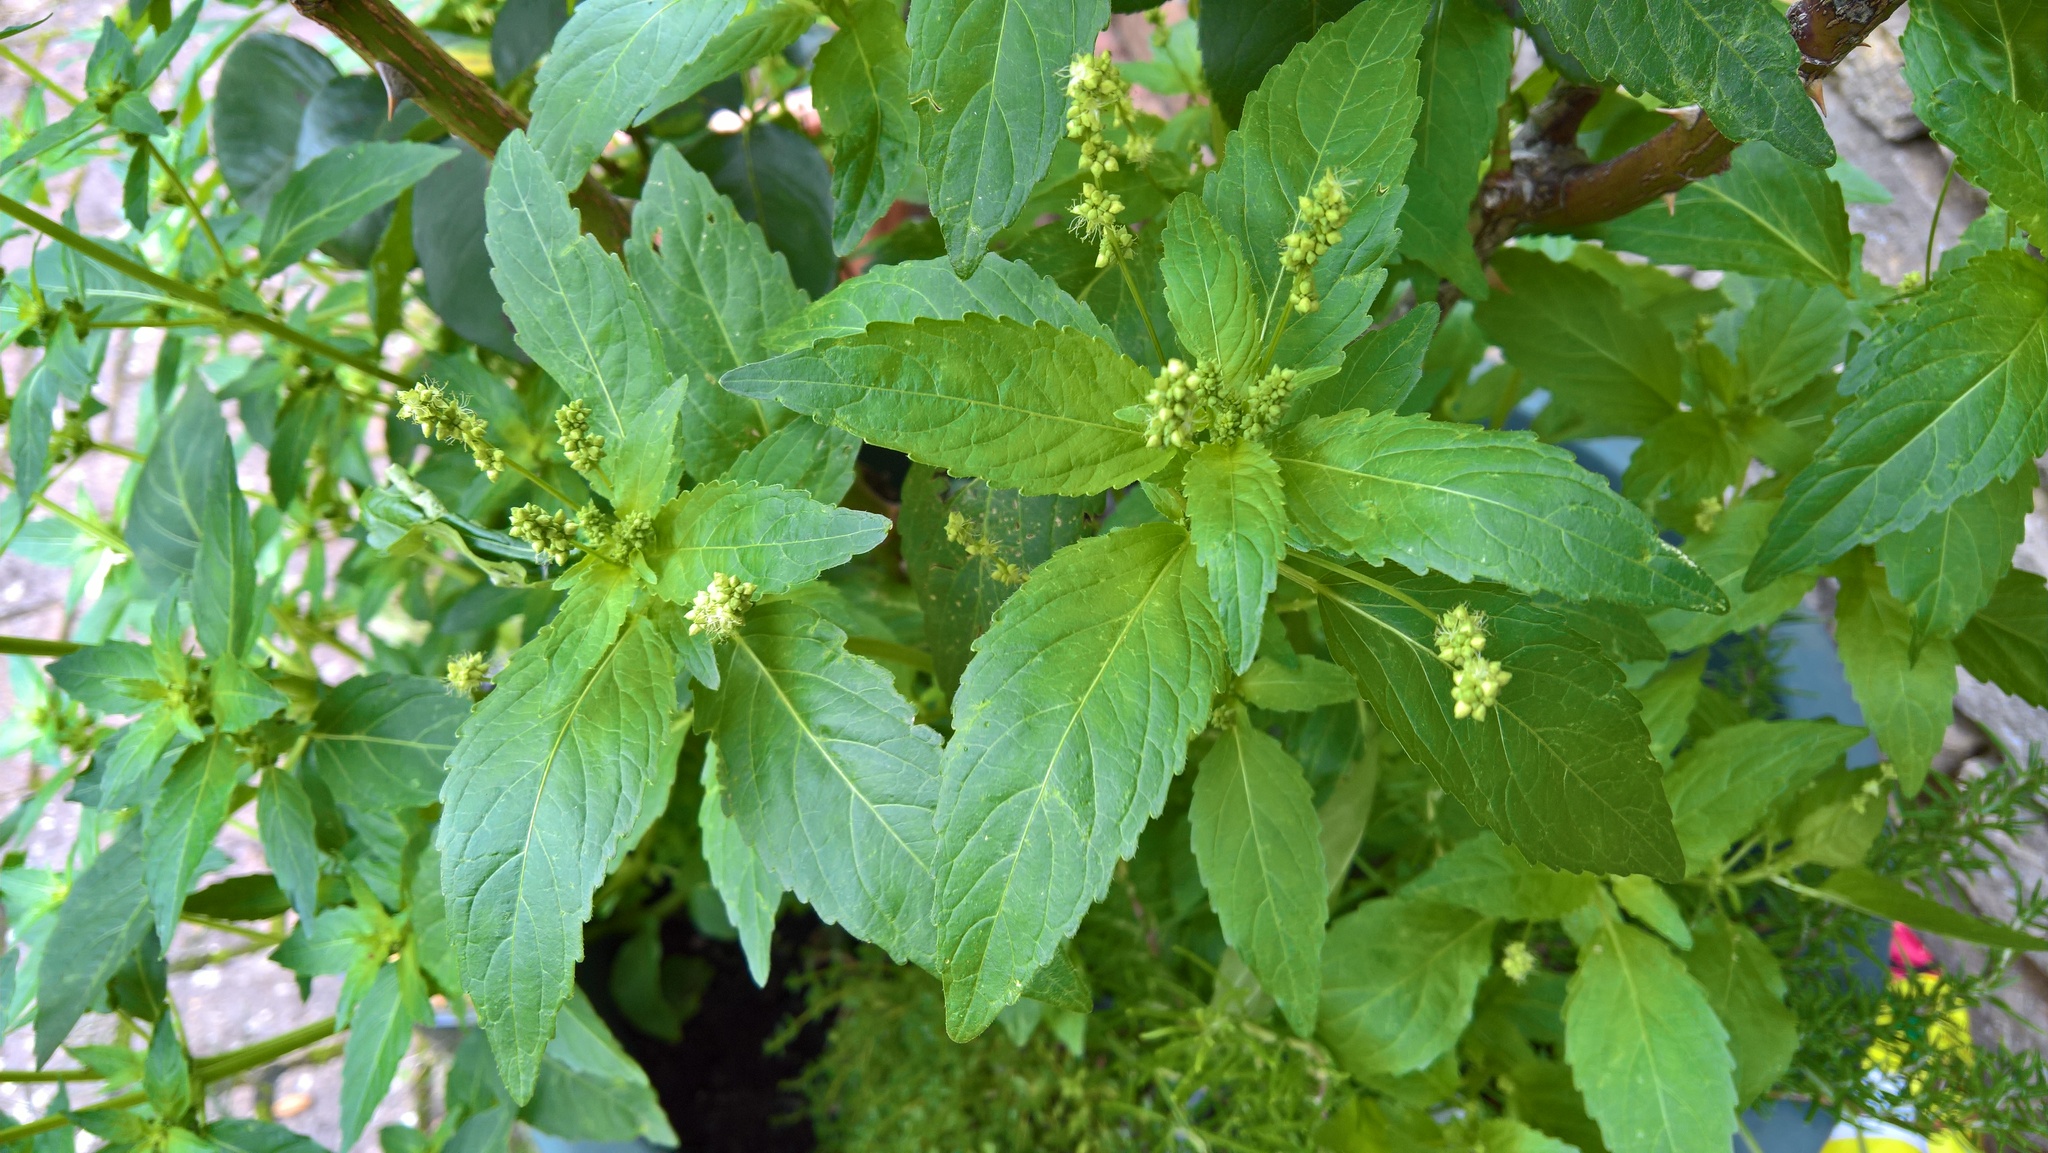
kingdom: Plantae
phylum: Tracheophyta
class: Magnoliopsida
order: Malpighiales
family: Euphorbiaceae
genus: Mercurialis
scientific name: Mercurialis annua
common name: Annual mercury
